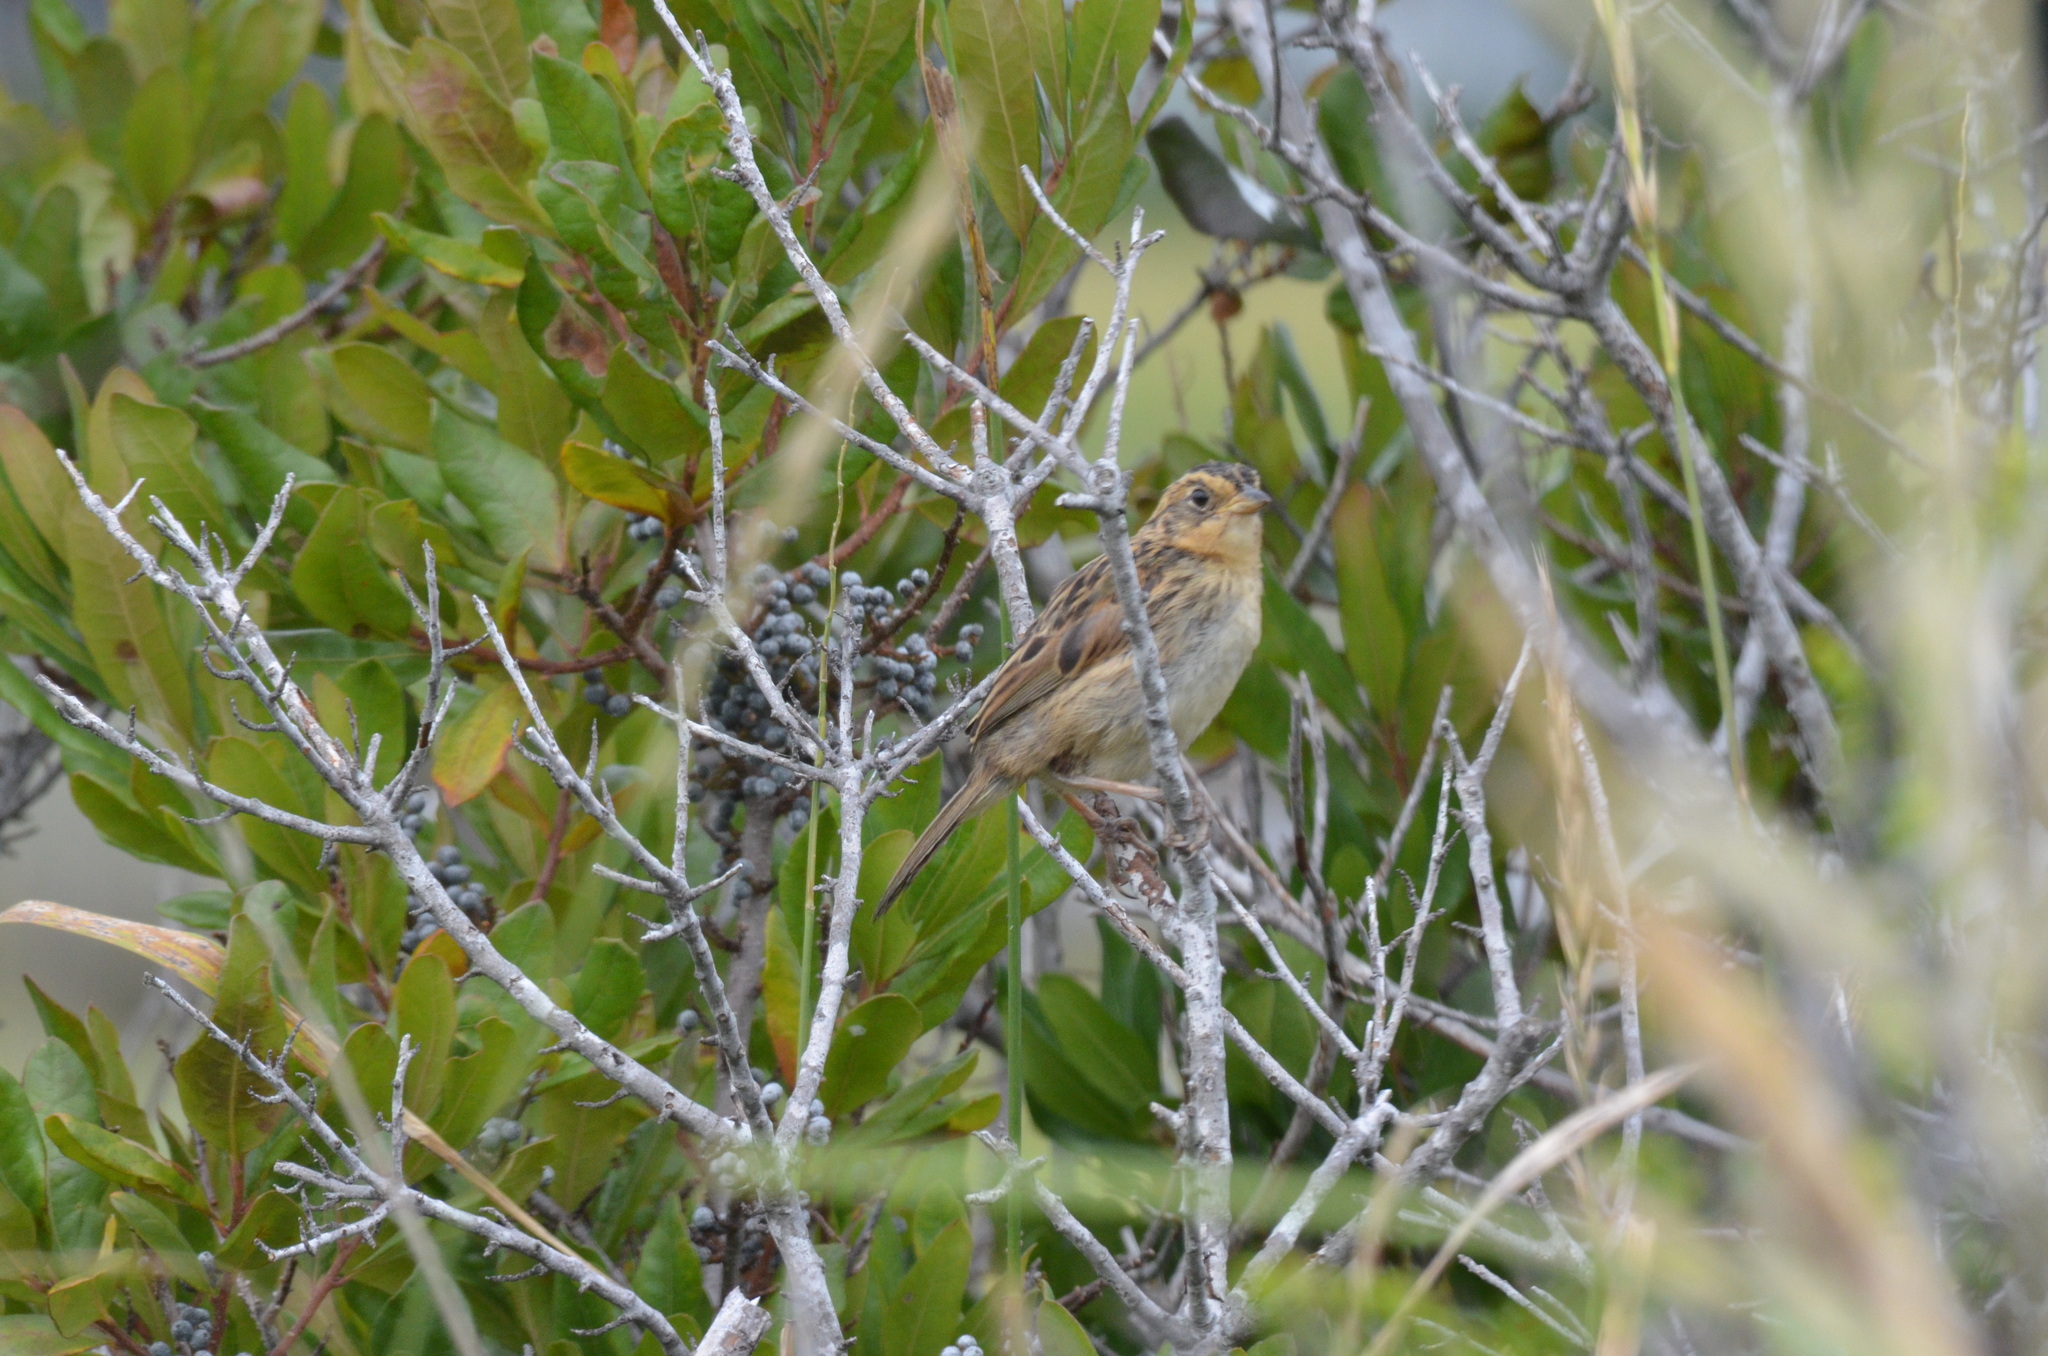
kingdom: Animalia
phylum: Chordata
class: Aves
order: Passeriformes
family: Passerellidae
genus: Ammospiza
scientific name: Ammospiza nelsoni
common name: Nelson's sparrow
